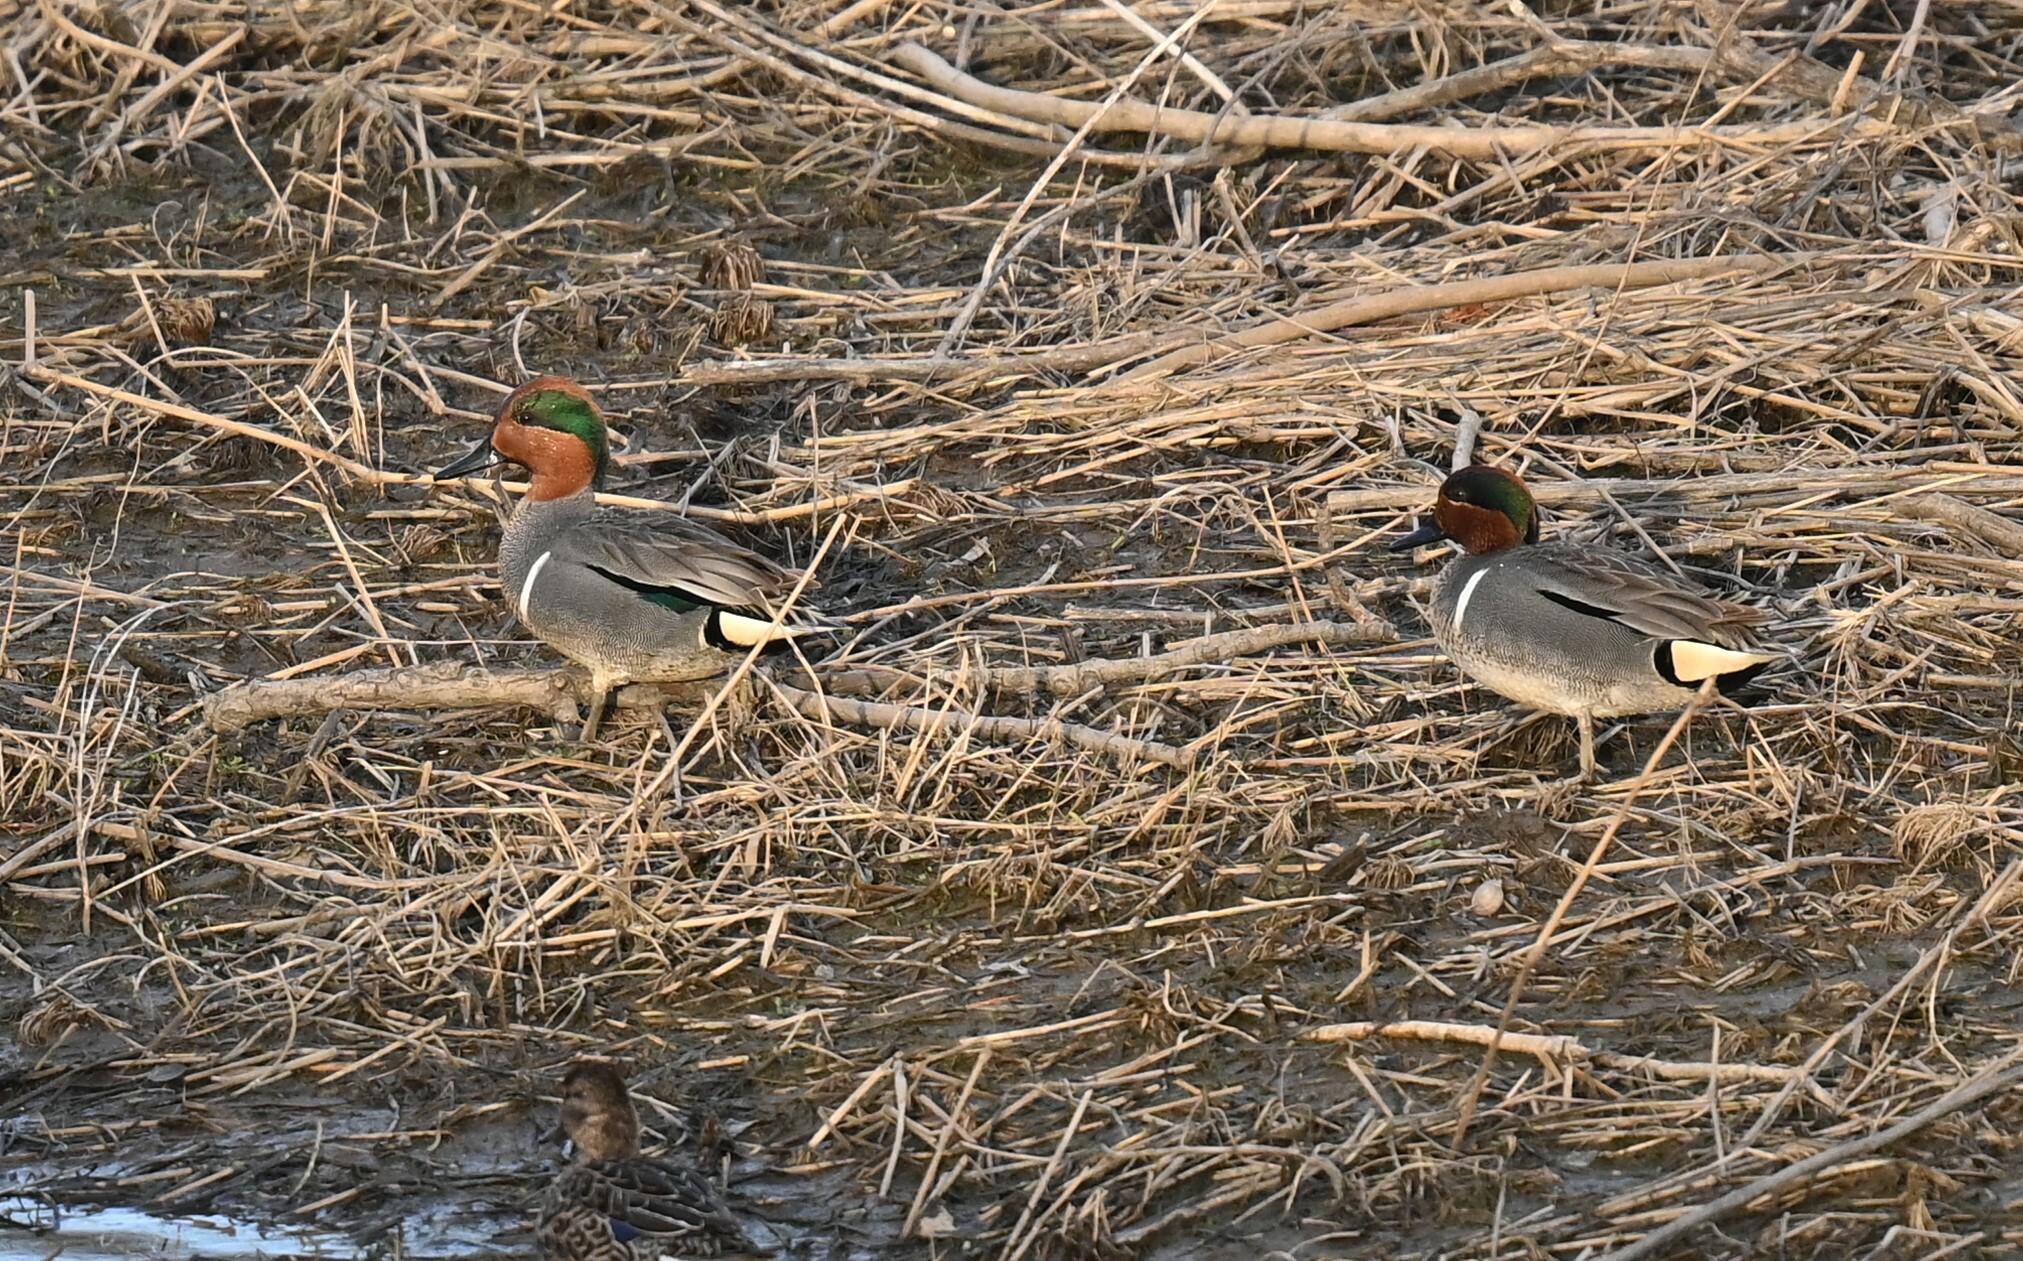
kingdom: Animalia
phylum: Chordata
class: Aves
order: Anseriformes
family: Anatidae
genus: Anas
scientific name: Anas crecca
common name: Eurasian teal
